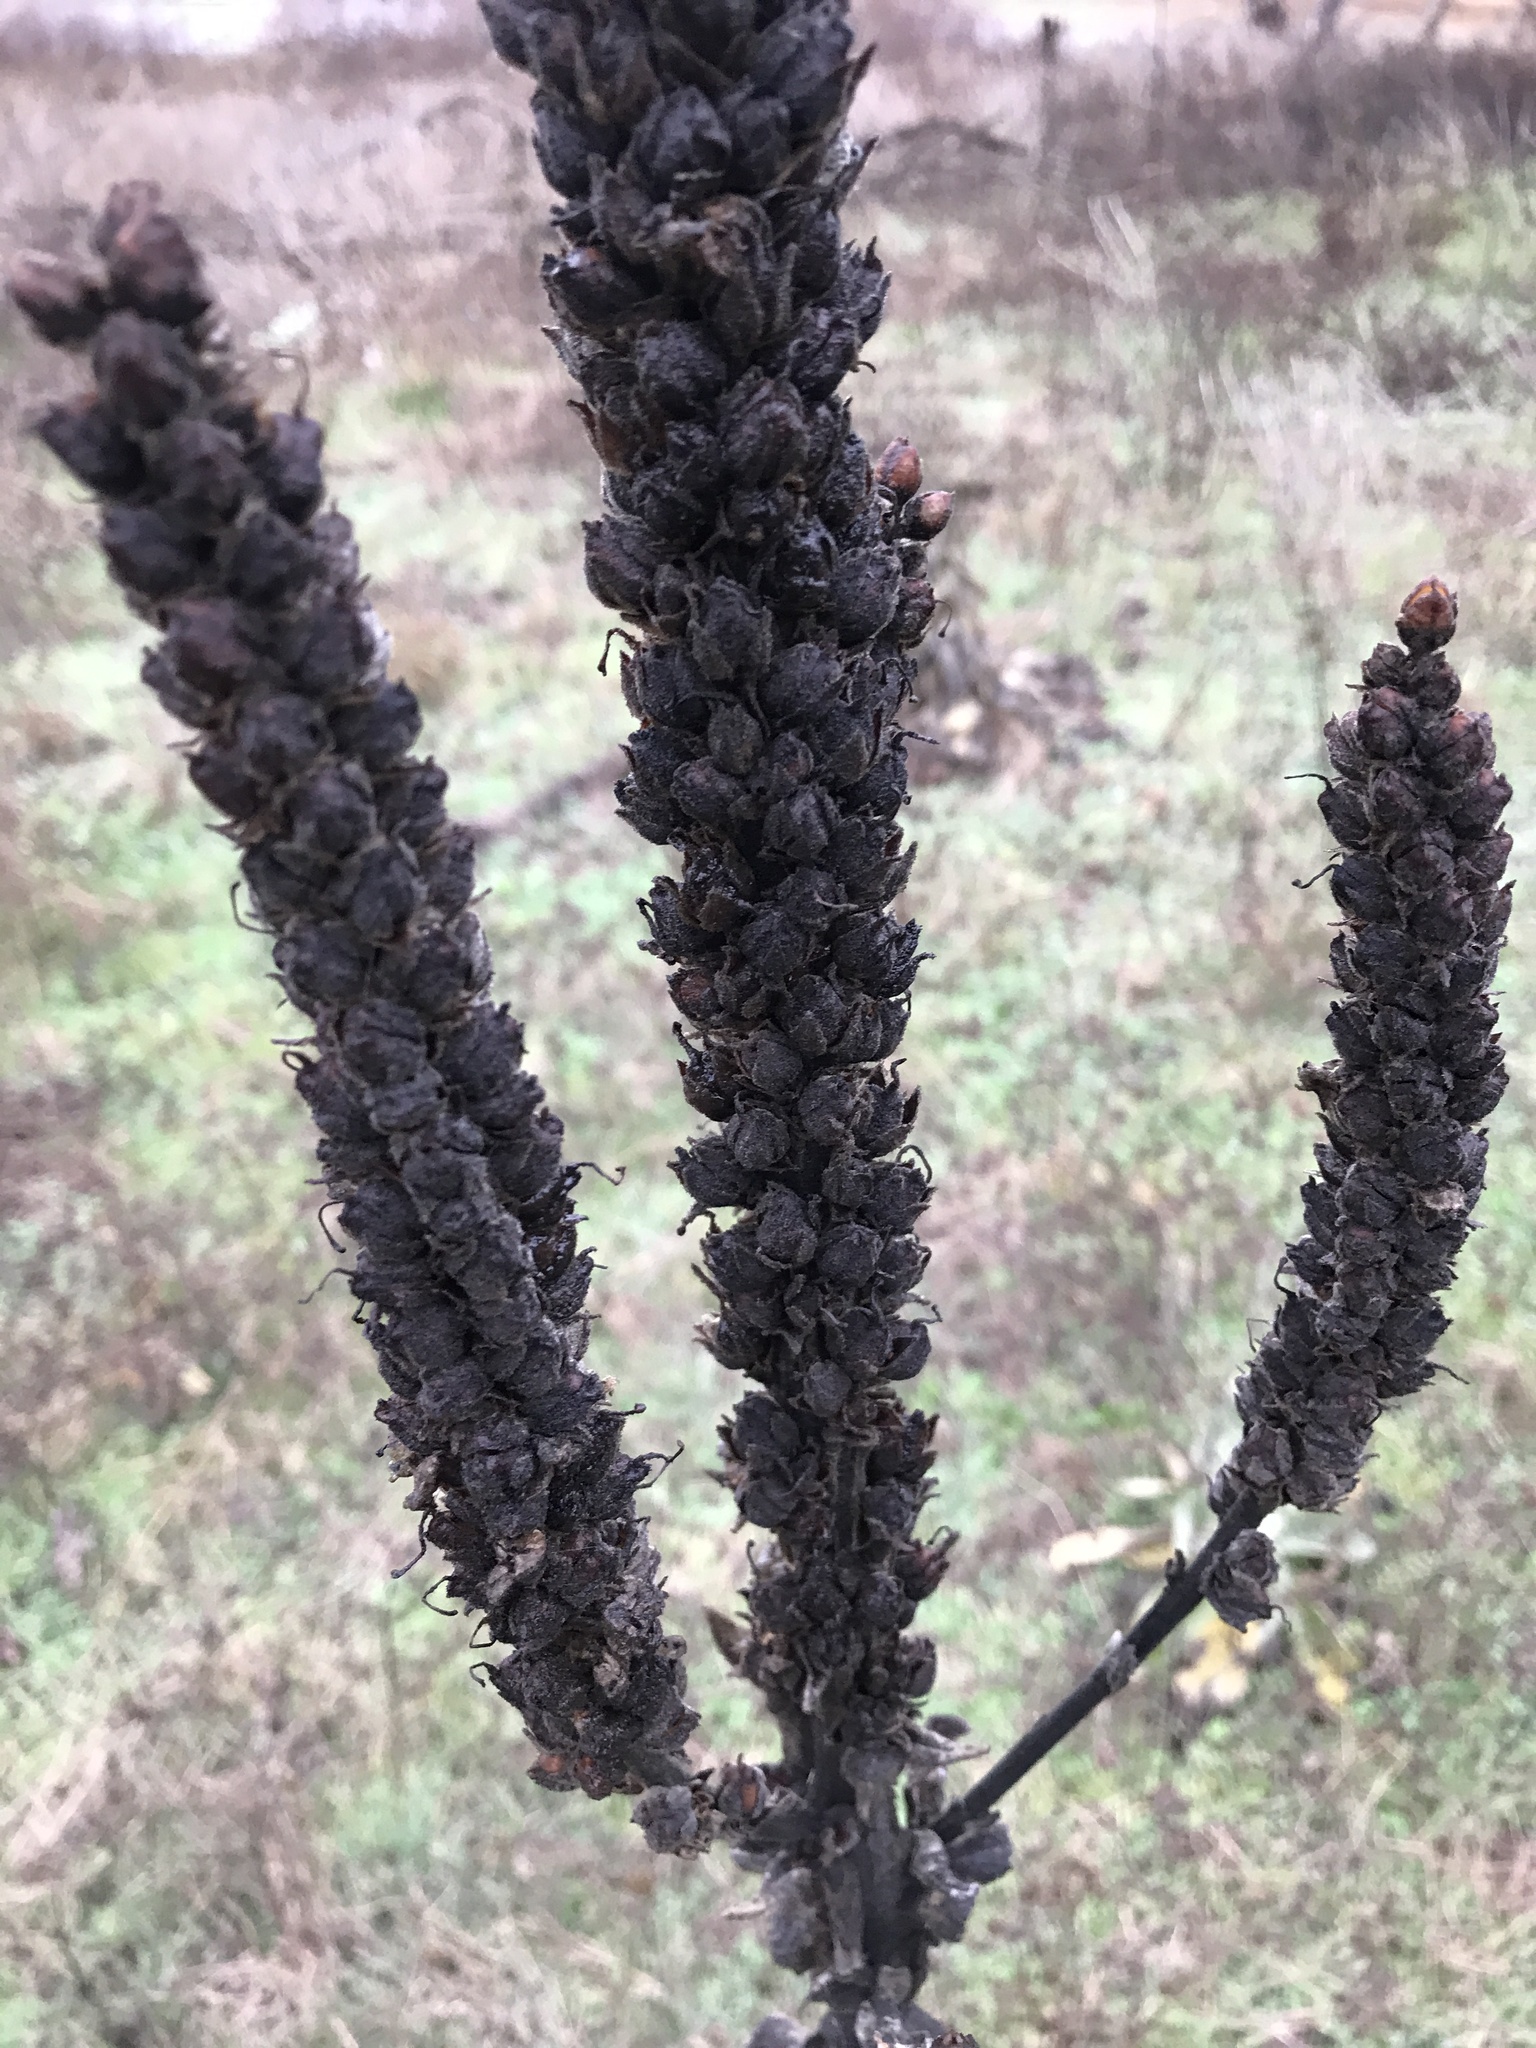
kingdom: Plantae
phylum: Tracheophyta
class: Magnoliopsida
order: Lamiales
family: Scrophulariaceae
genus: Verbascum
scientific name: Verbascum thapsus
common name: Common mullein
